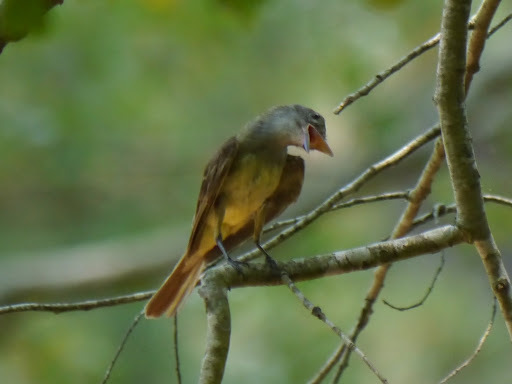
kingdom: Animalia
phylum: Chordata
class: Aves
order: Passeriformes
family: Tyrannidae
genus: Myiarchus
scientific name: Myiarchus crinitus
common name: Great crested flycatcher
